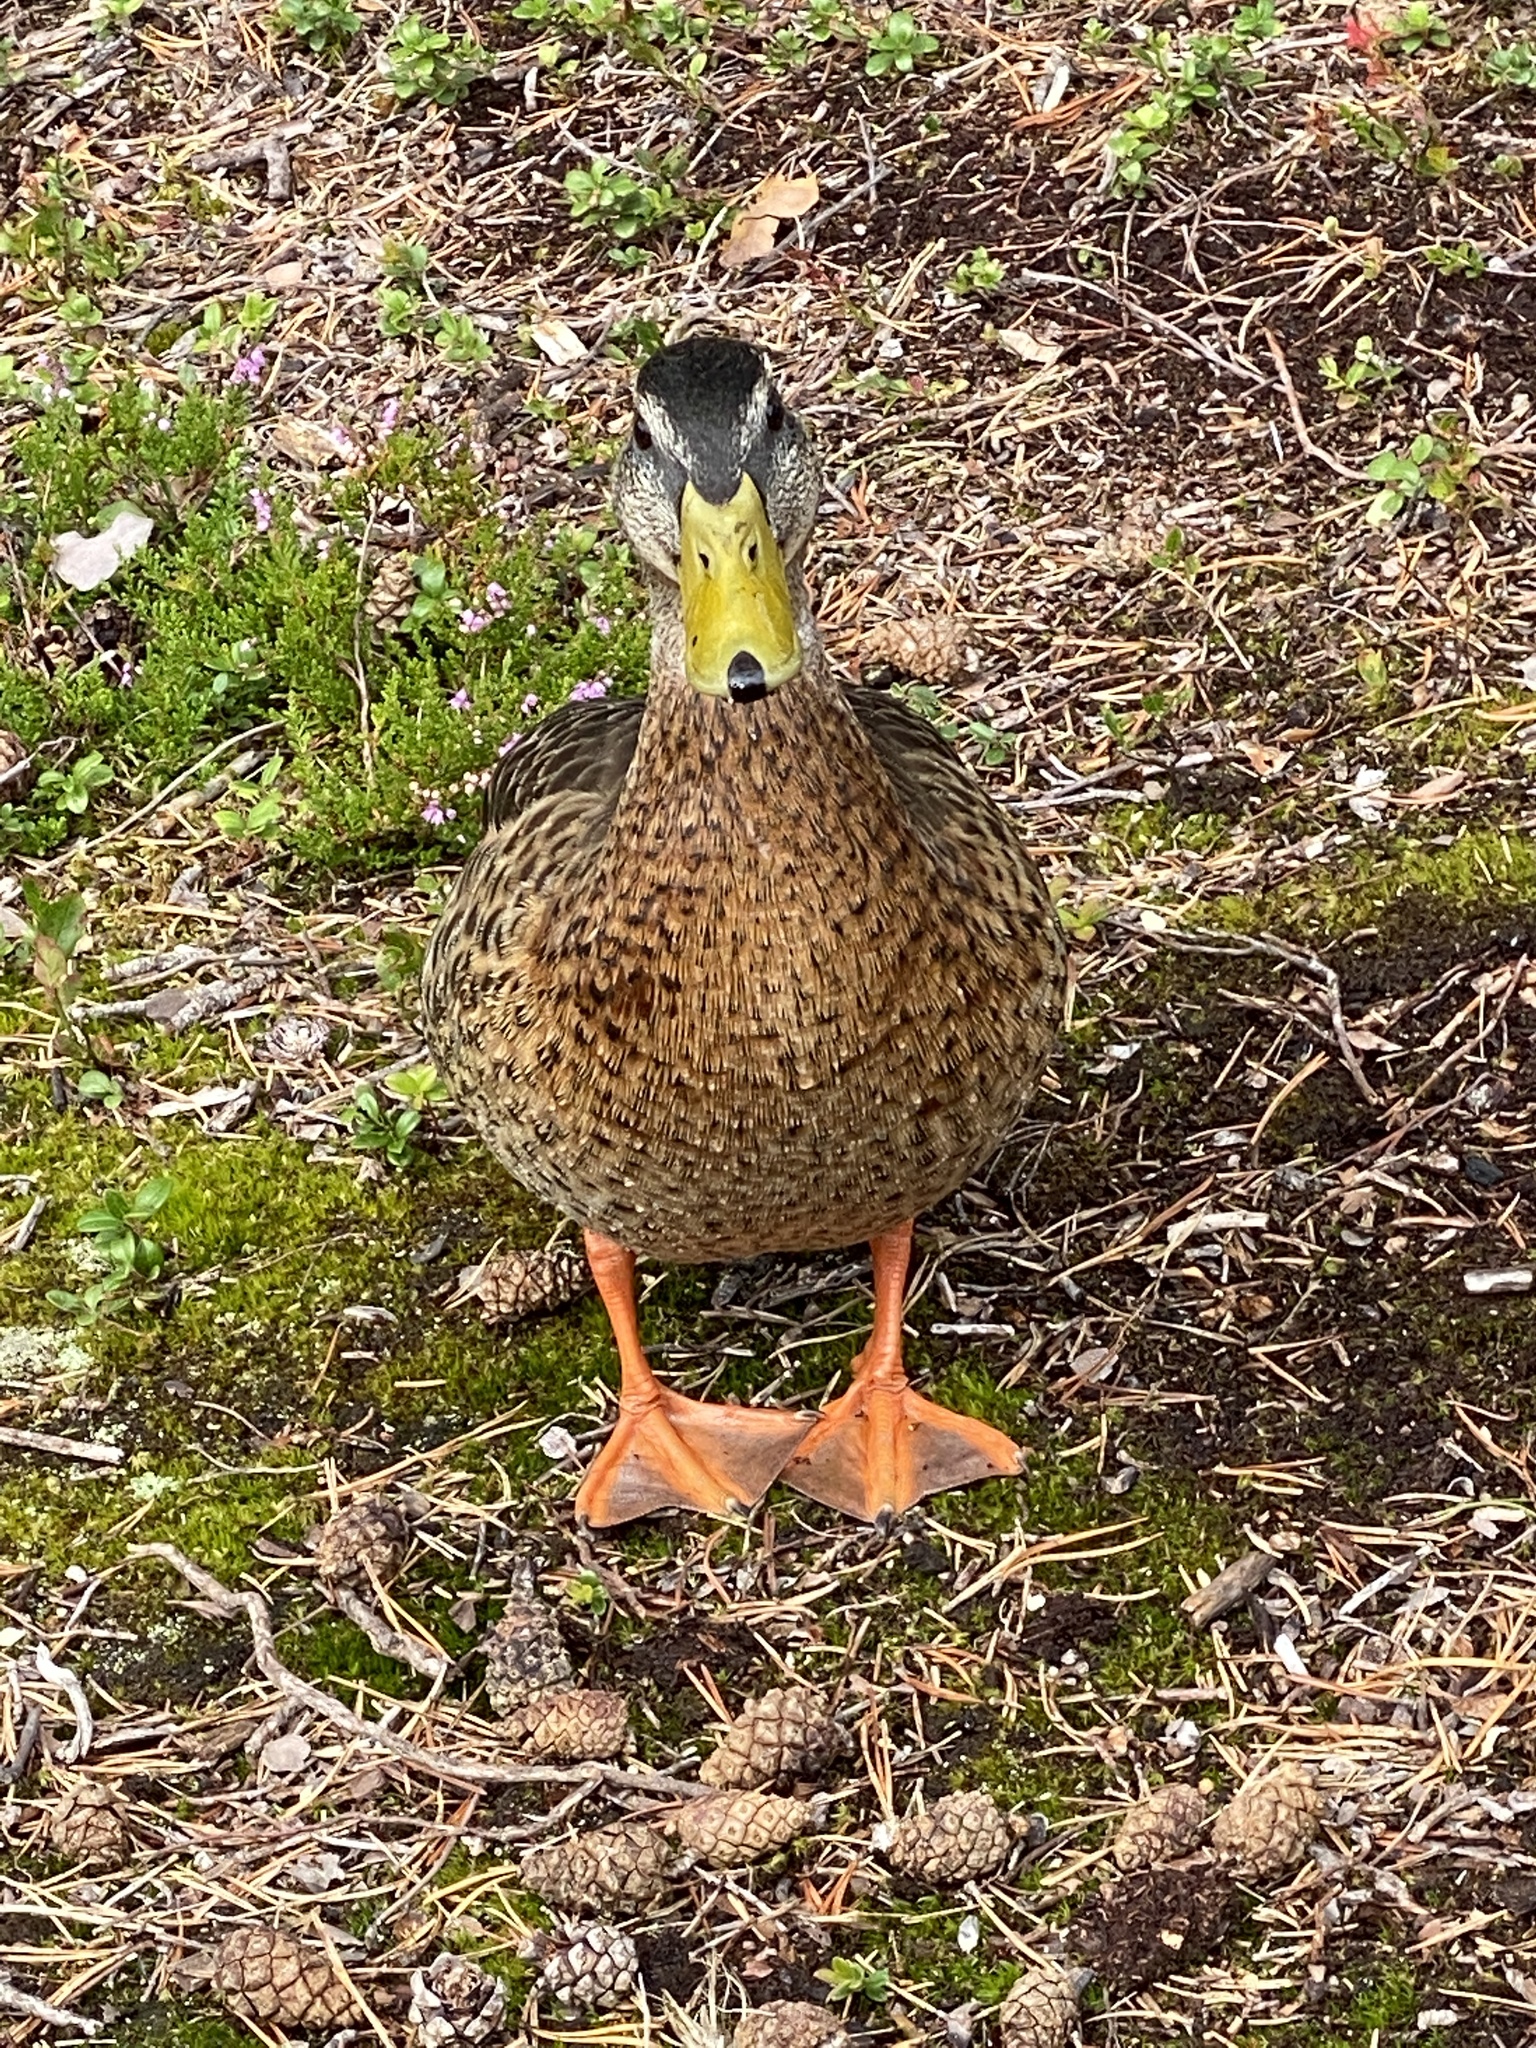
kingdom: Animalia
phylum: Chordata
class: Aves
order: Anseriformes
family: Anatidae
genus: Anas
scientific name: Anas platyrhynchos
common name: Mallard
